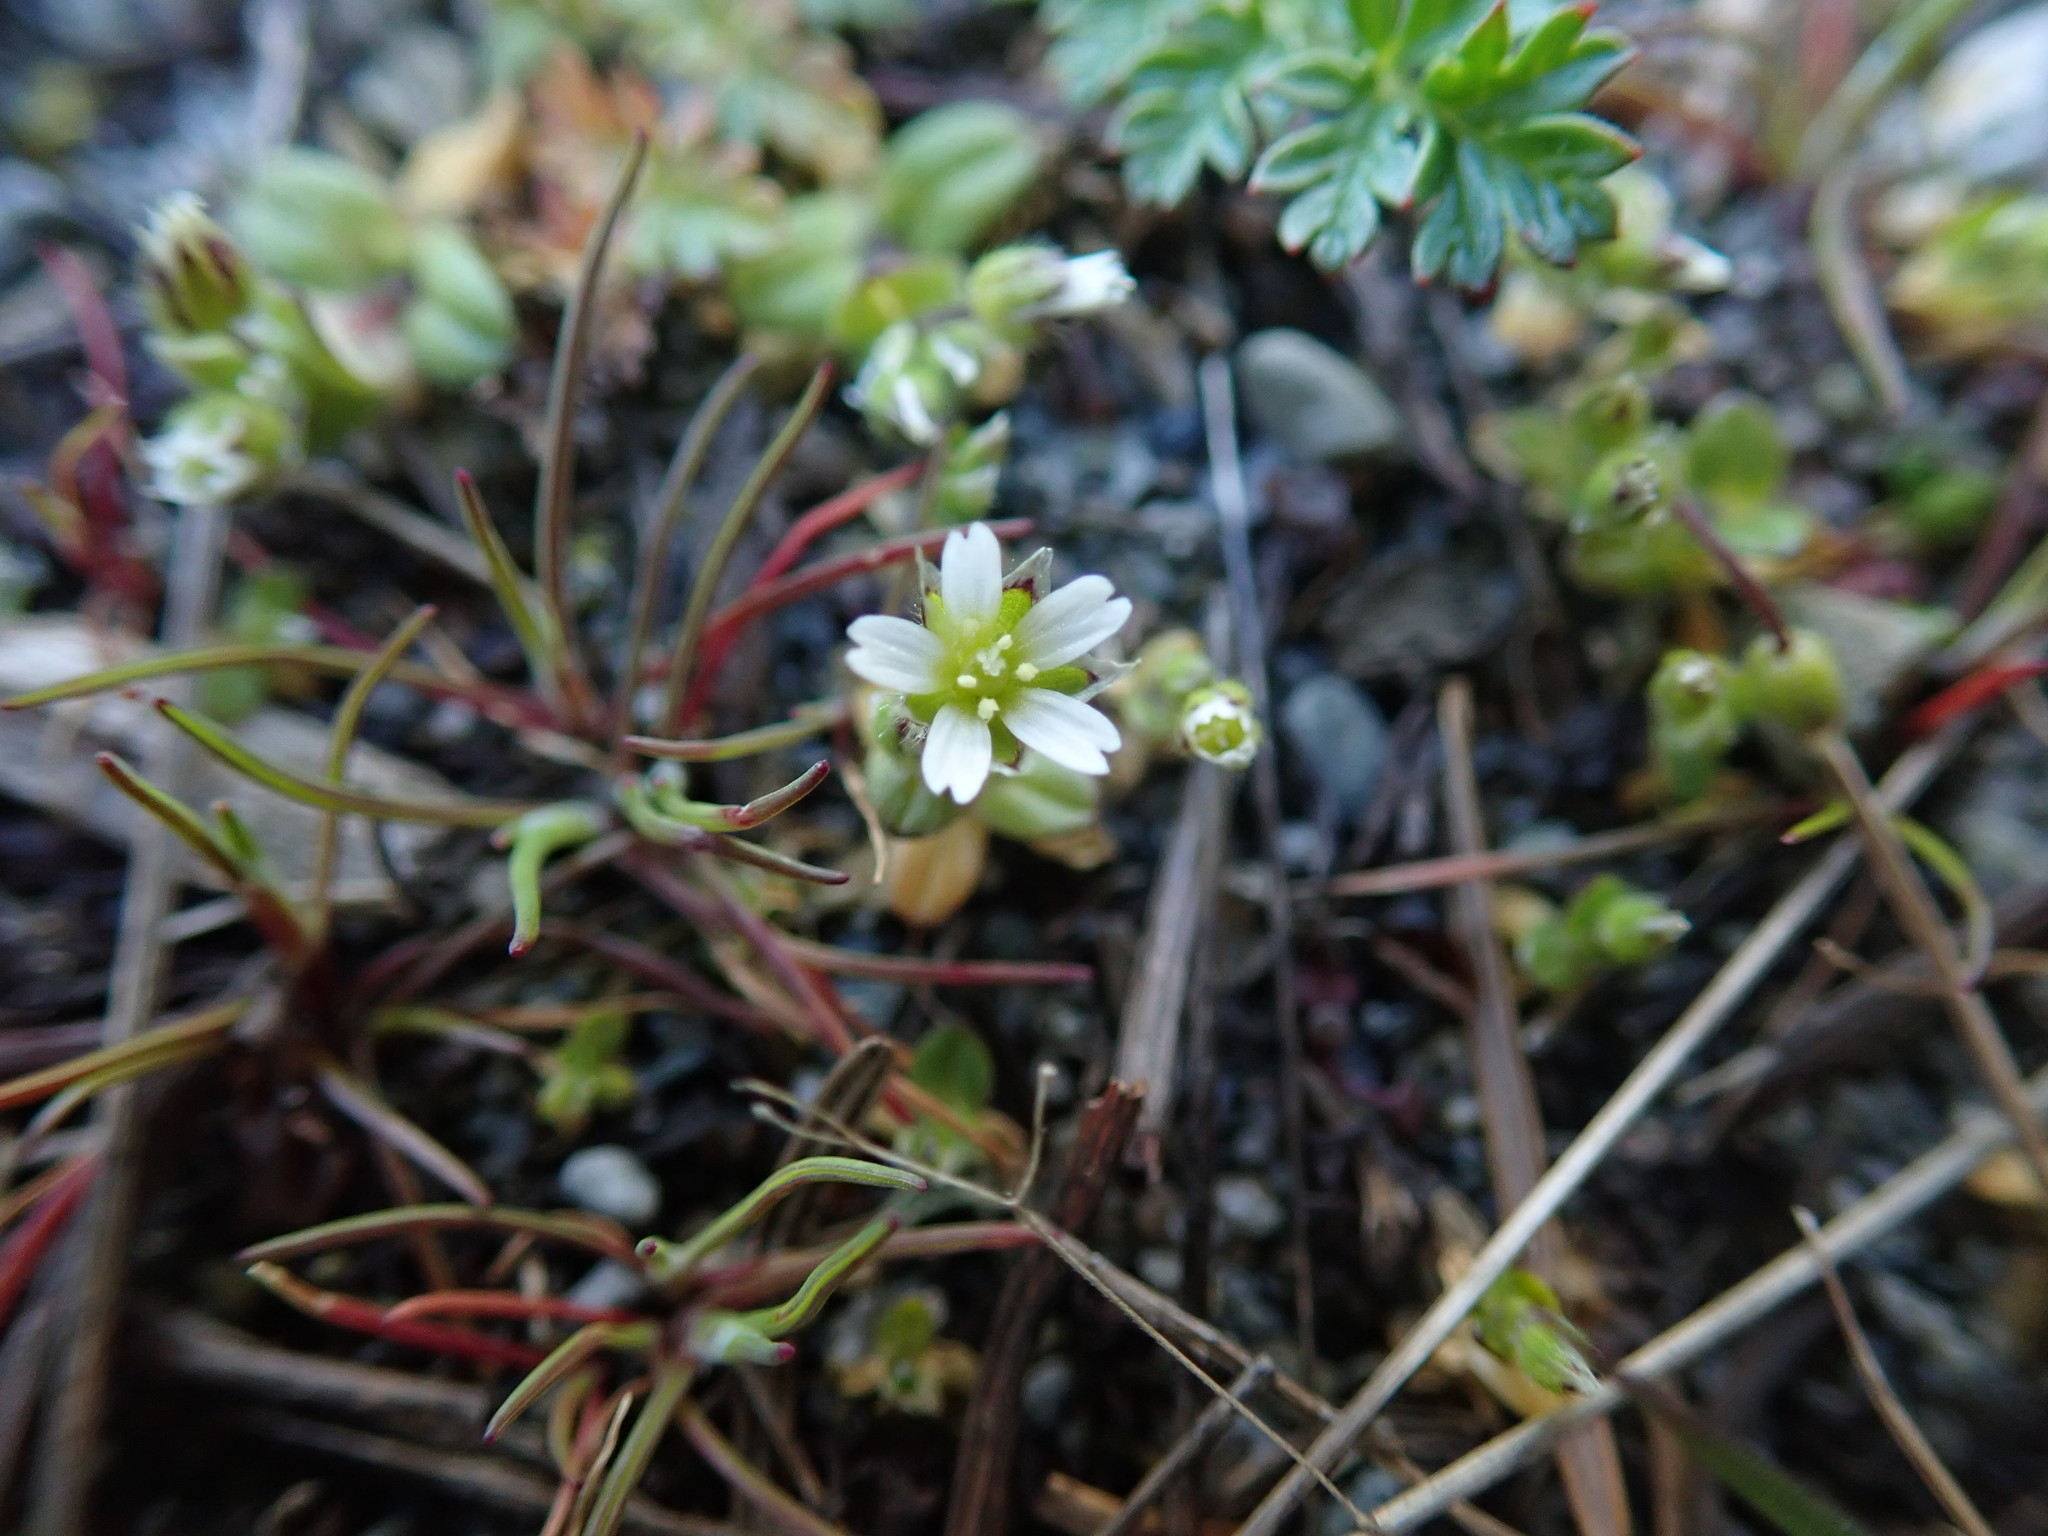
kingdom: Plantae
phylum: Tracheophyta
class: Magnoliopsida
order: Caryophyllales
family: Caryophyllaceae
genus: Cerastium
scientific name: Cerastium semidecandrum
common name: Little mouse-ear
